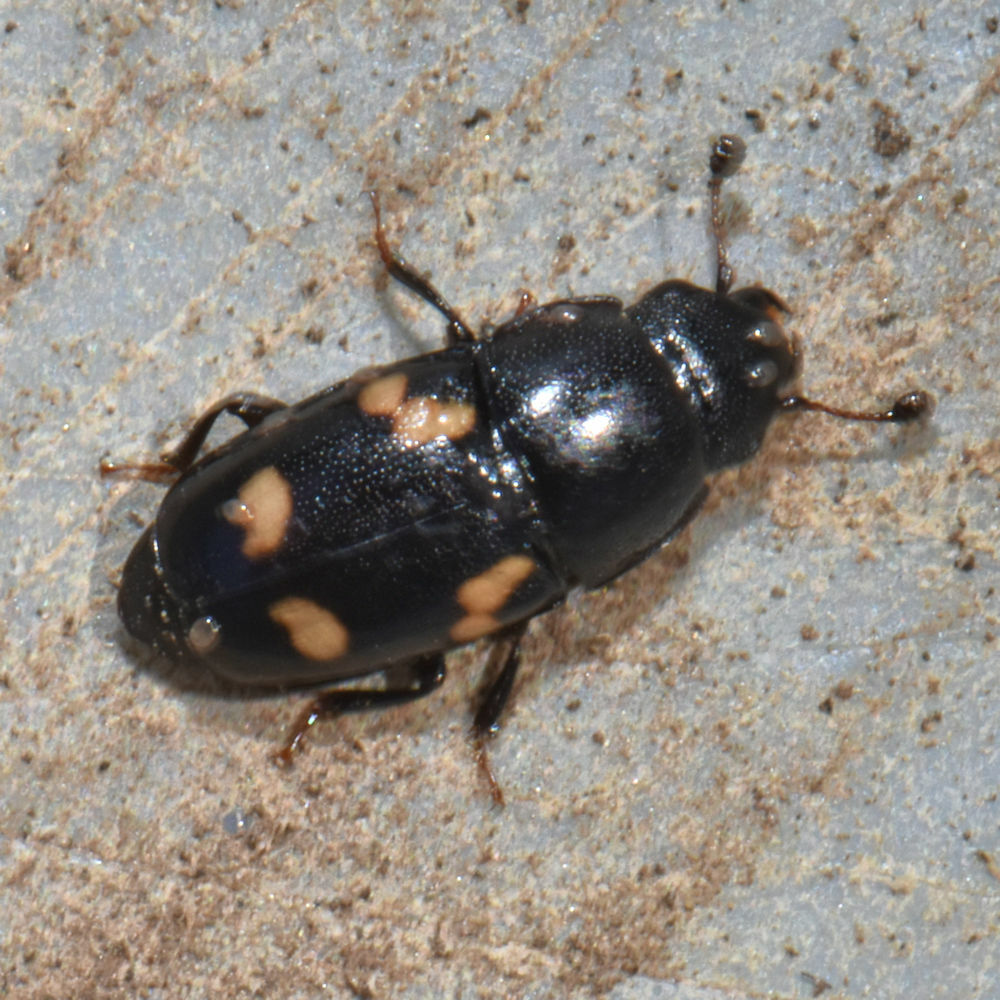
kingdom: Animalia
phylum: Arthropoda
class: Insecta
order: Coleoptera
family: Nitidulidae
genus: Glischrochilus
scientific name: Glischrochilus quadrisignatus
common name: Picnic beetle
